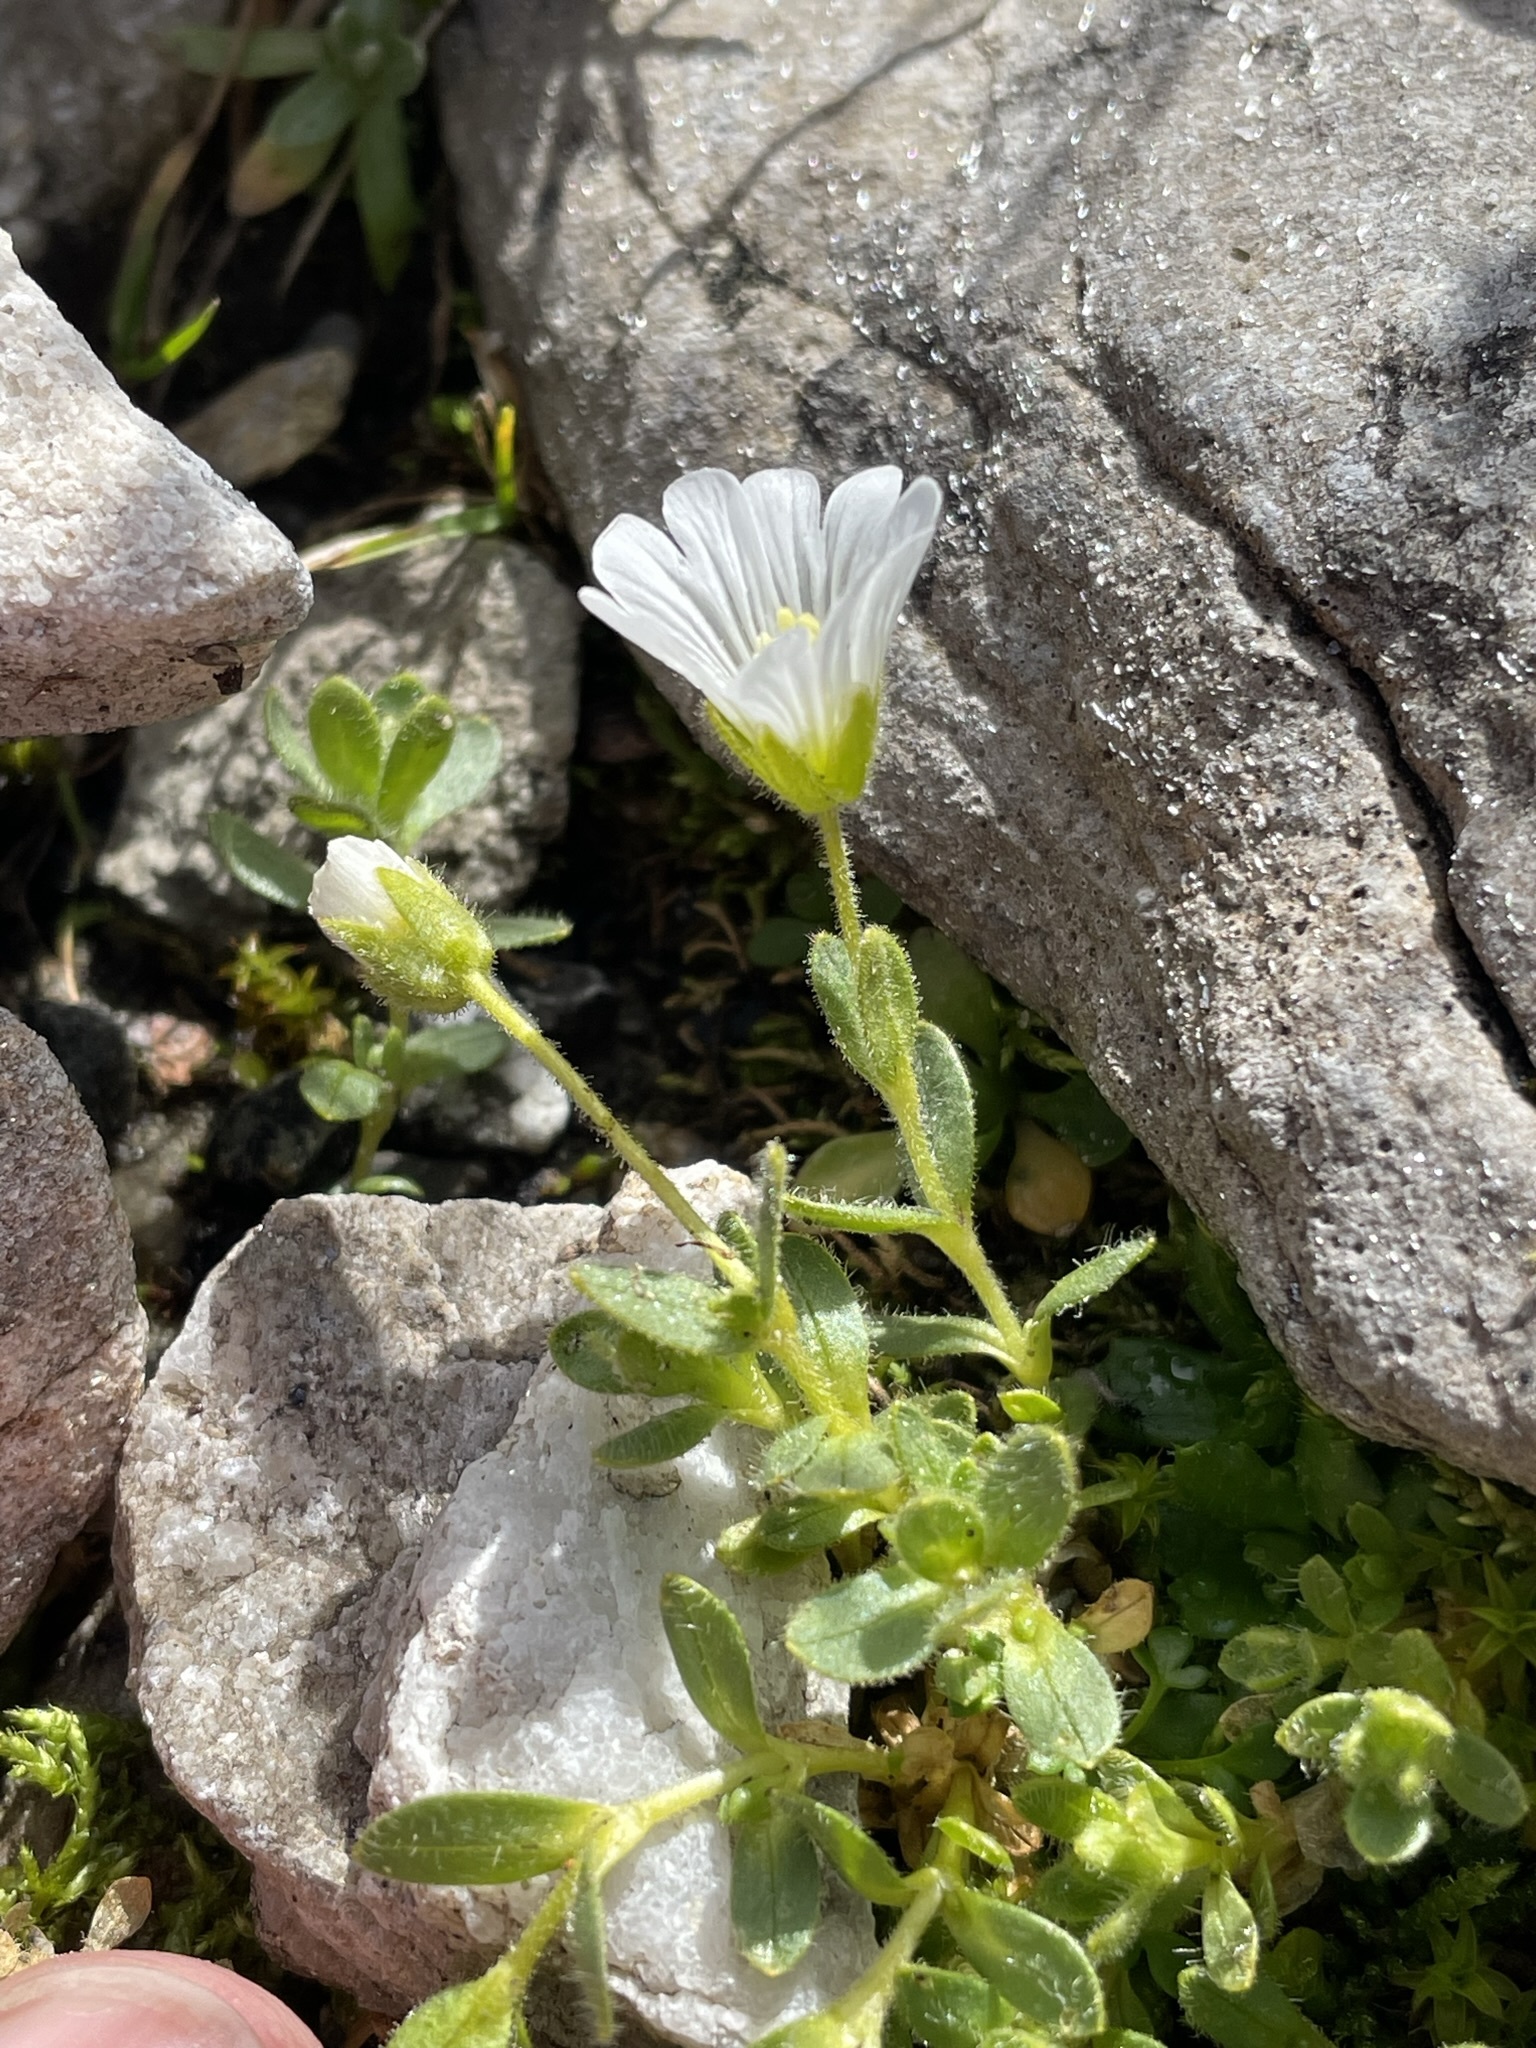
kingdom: Plantae
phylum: Tracheophyta
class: Magnoliopsida
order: Caryophyllales
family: Caryophyllaceae
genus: Cerastium
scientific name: Cerastium uniflorum
